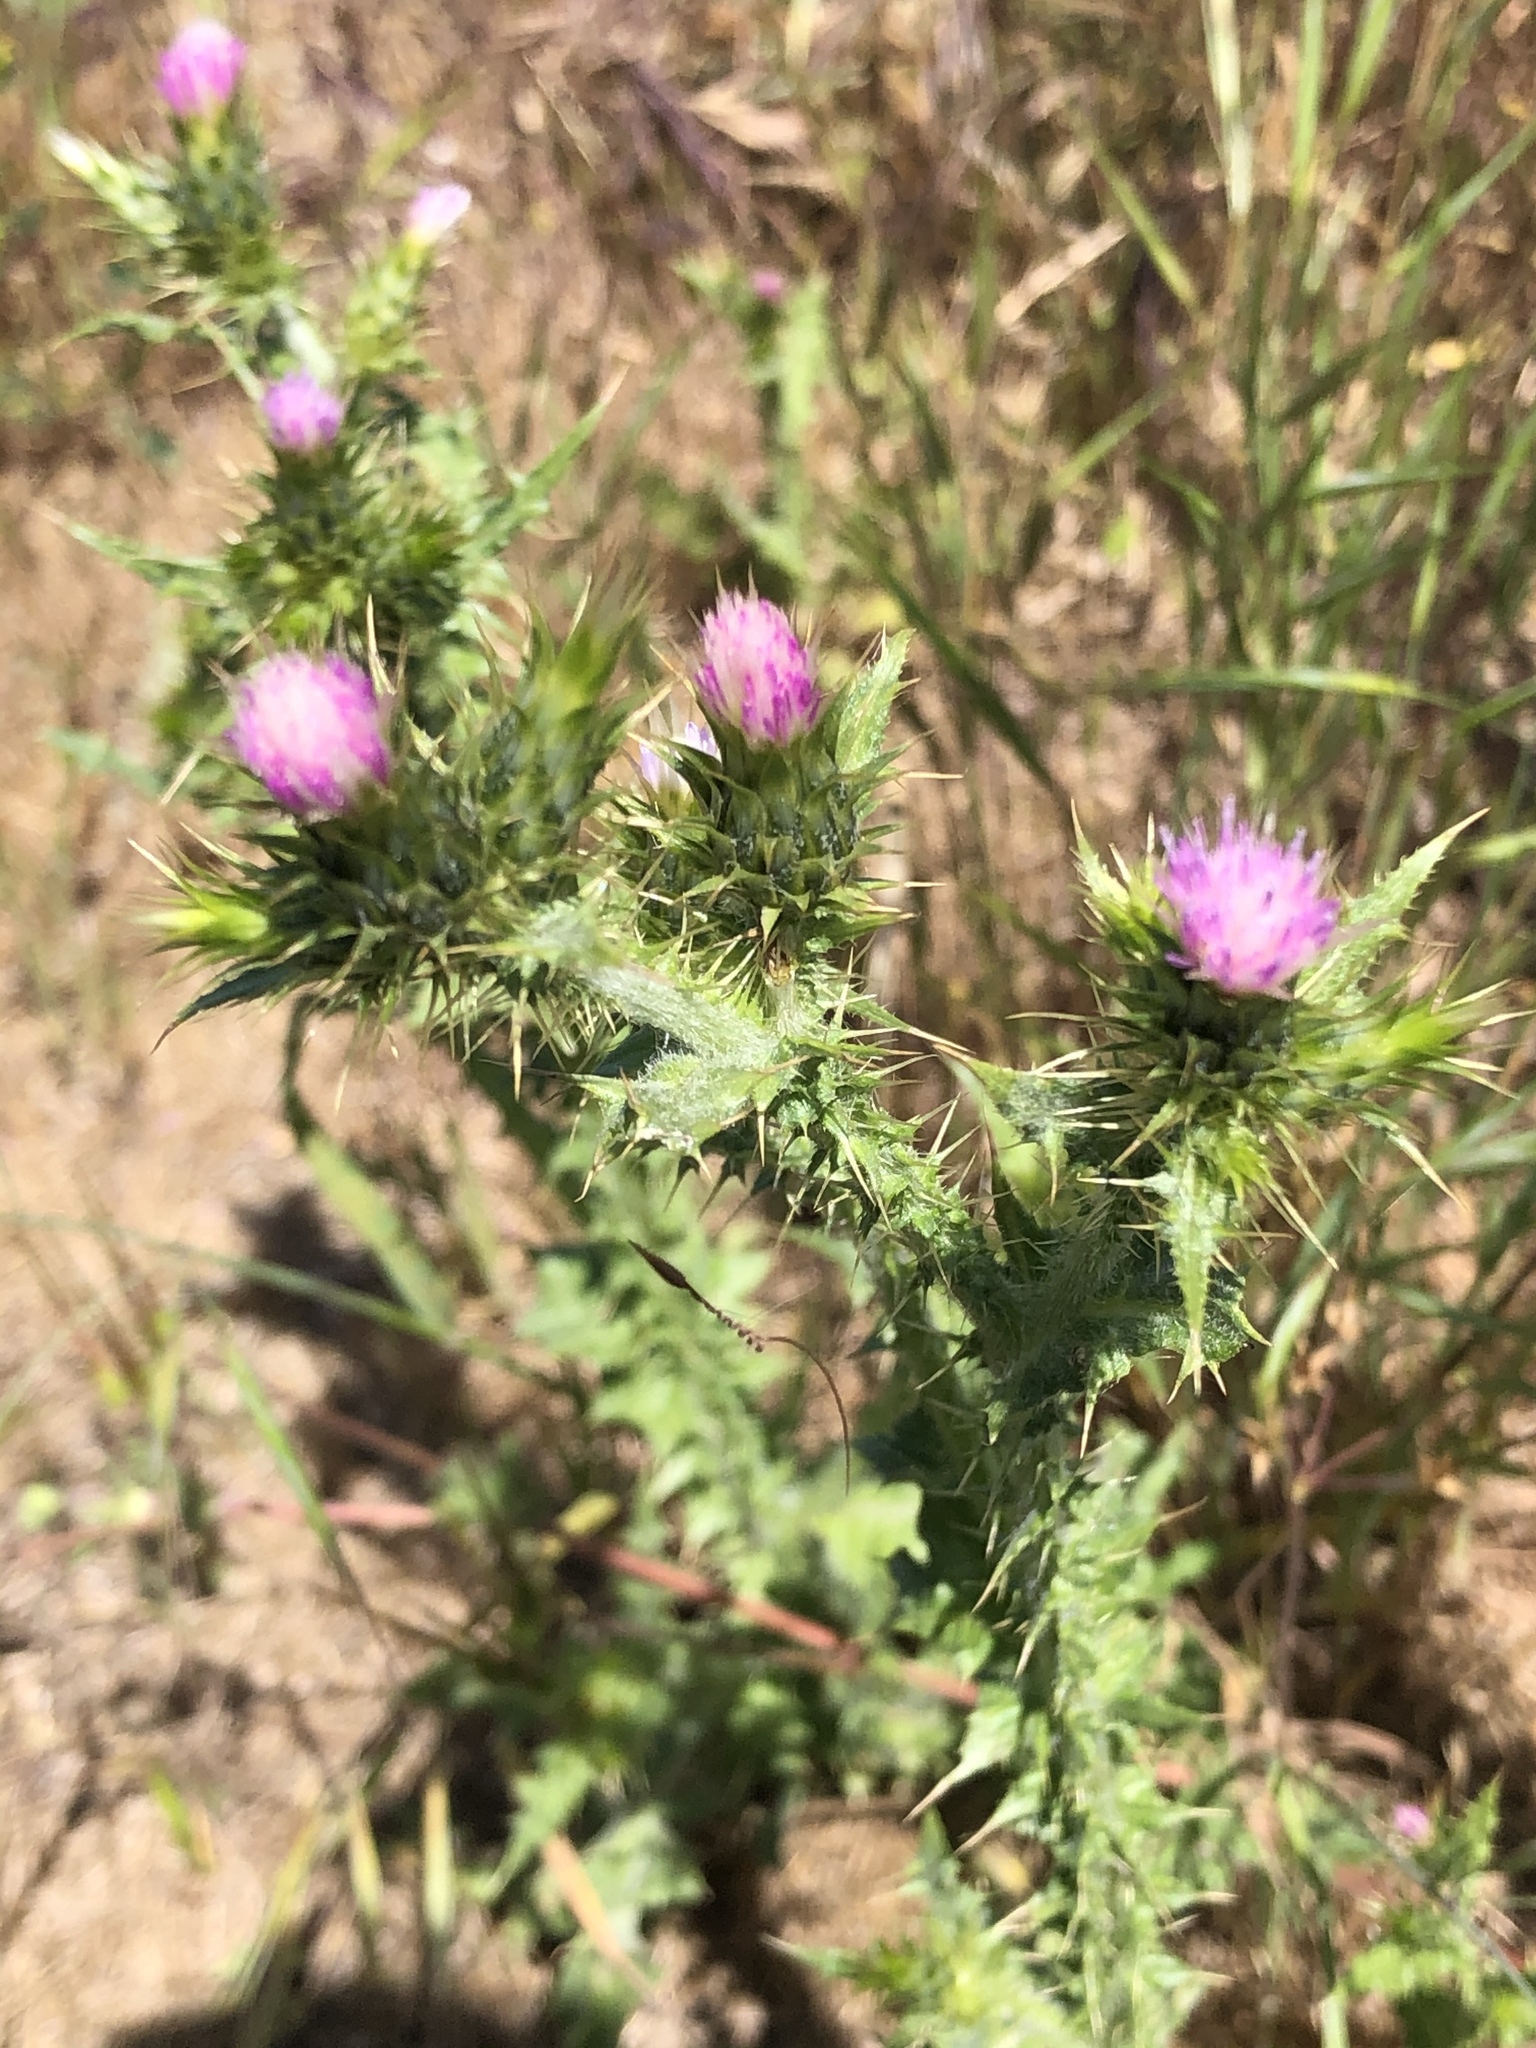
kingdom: Plantae
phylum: Tracheophyta
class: Magnoliopsida
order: Asterales
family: Asteraceae
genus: Carduus
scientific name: Carduus tenuiflorus
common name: Slender thistle
